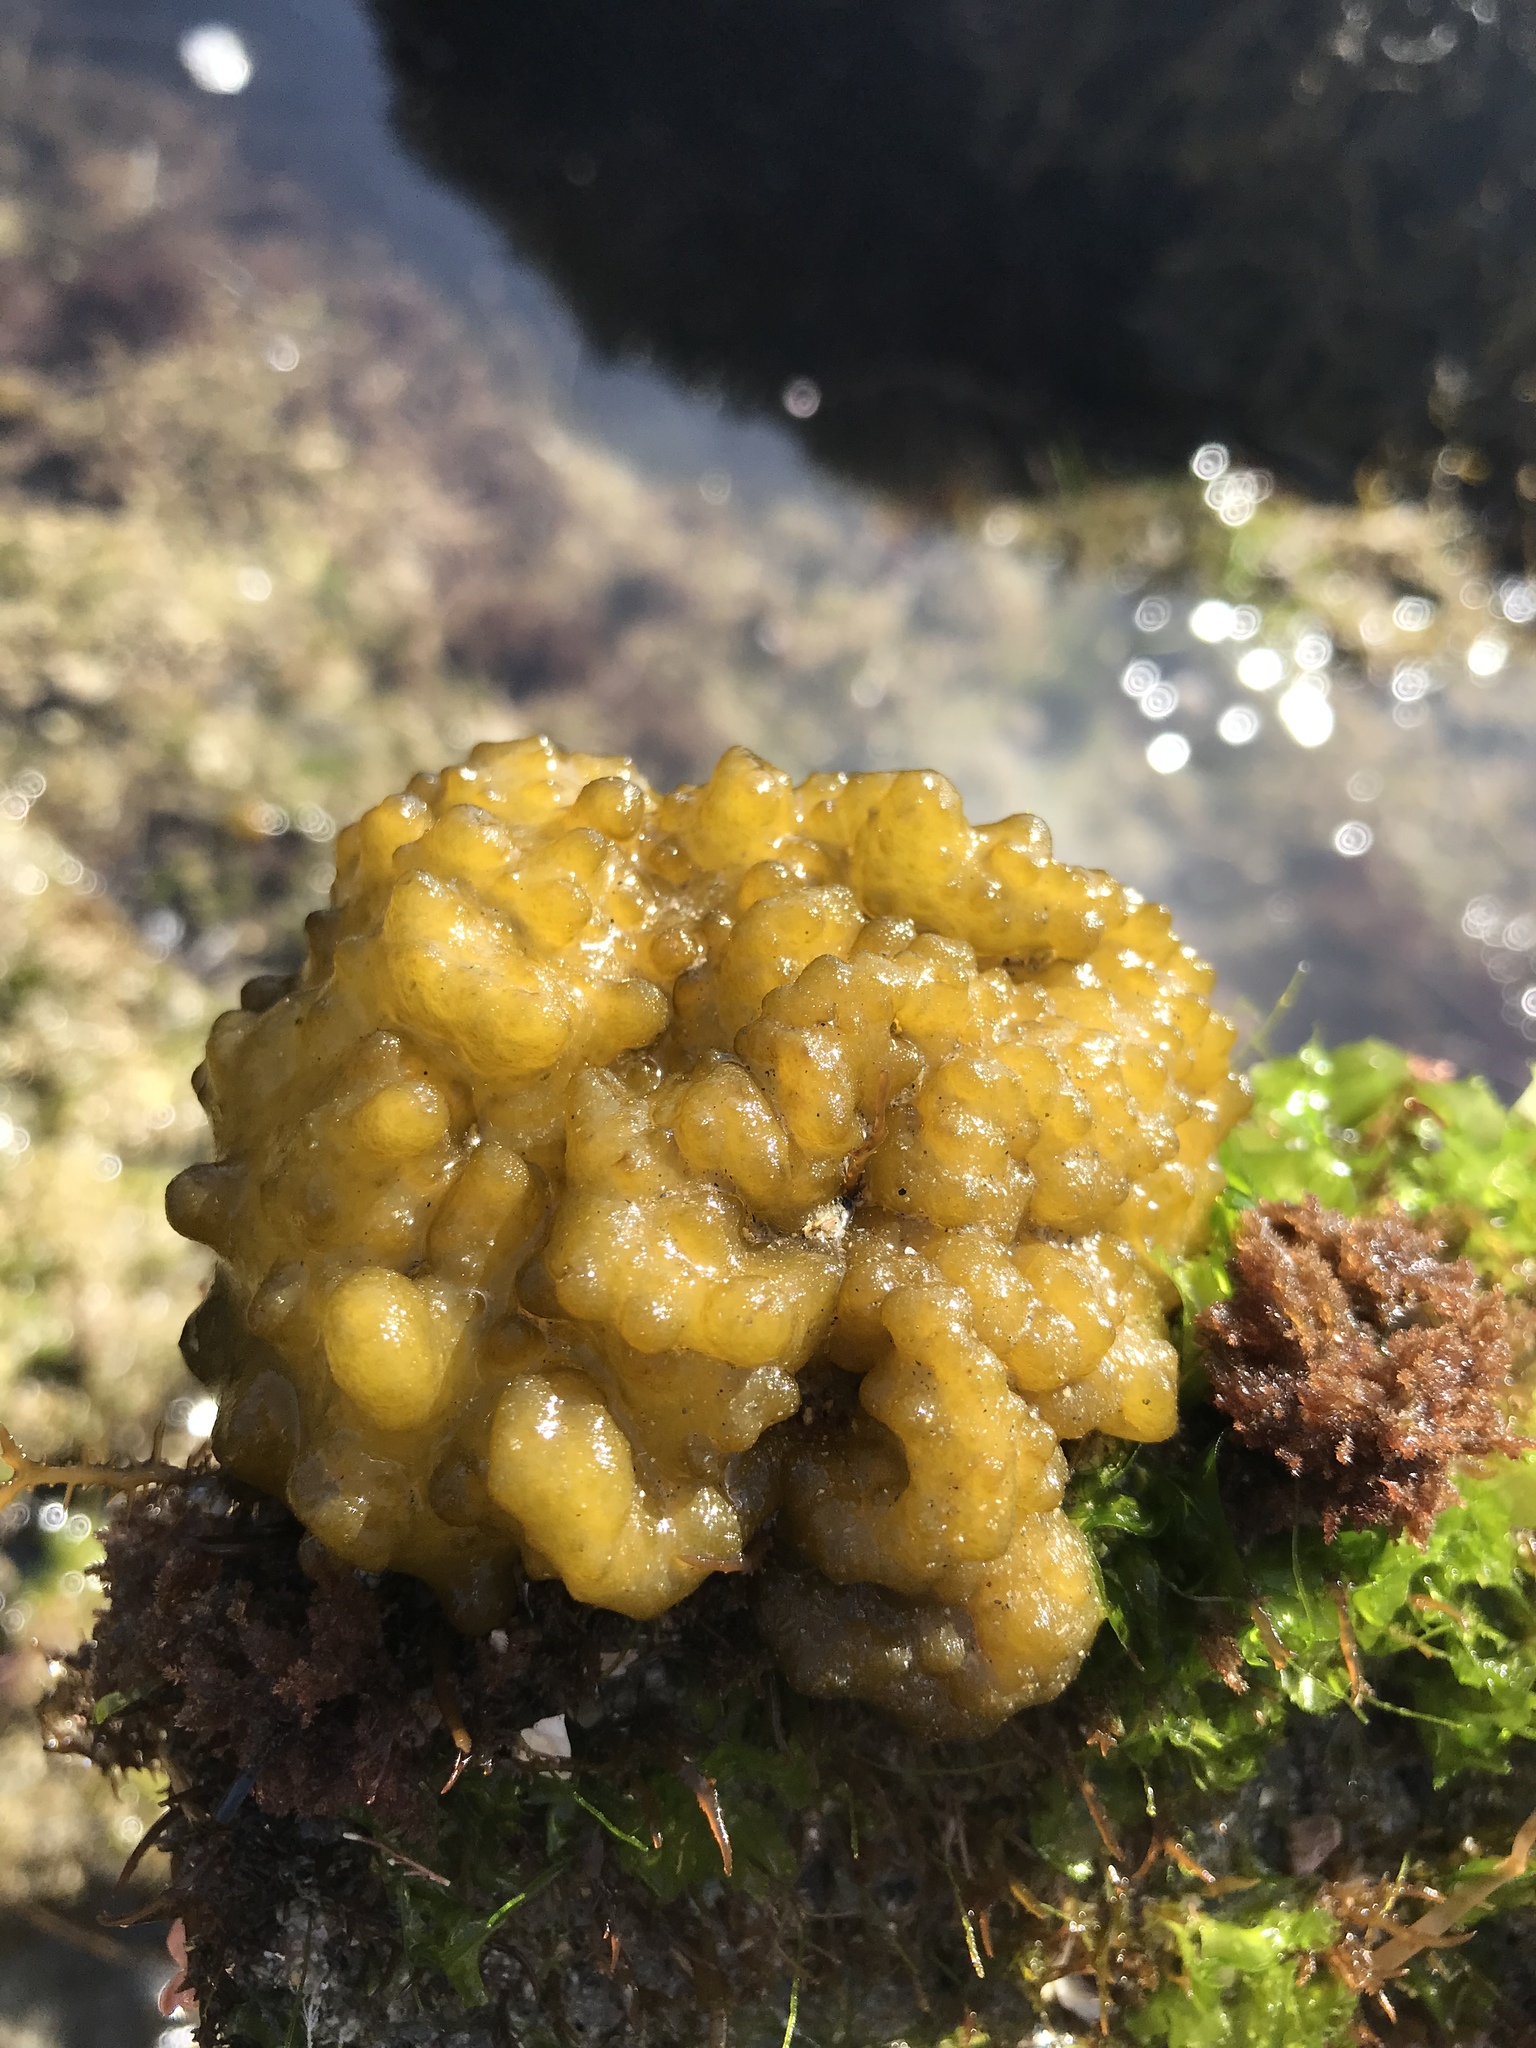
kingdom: Chromista
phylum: Ochrophyta
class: Phaeophyceae
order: Scytosiphonales
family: Scytosiphonaceae
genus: Colpomenia
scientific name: Colpomenia
